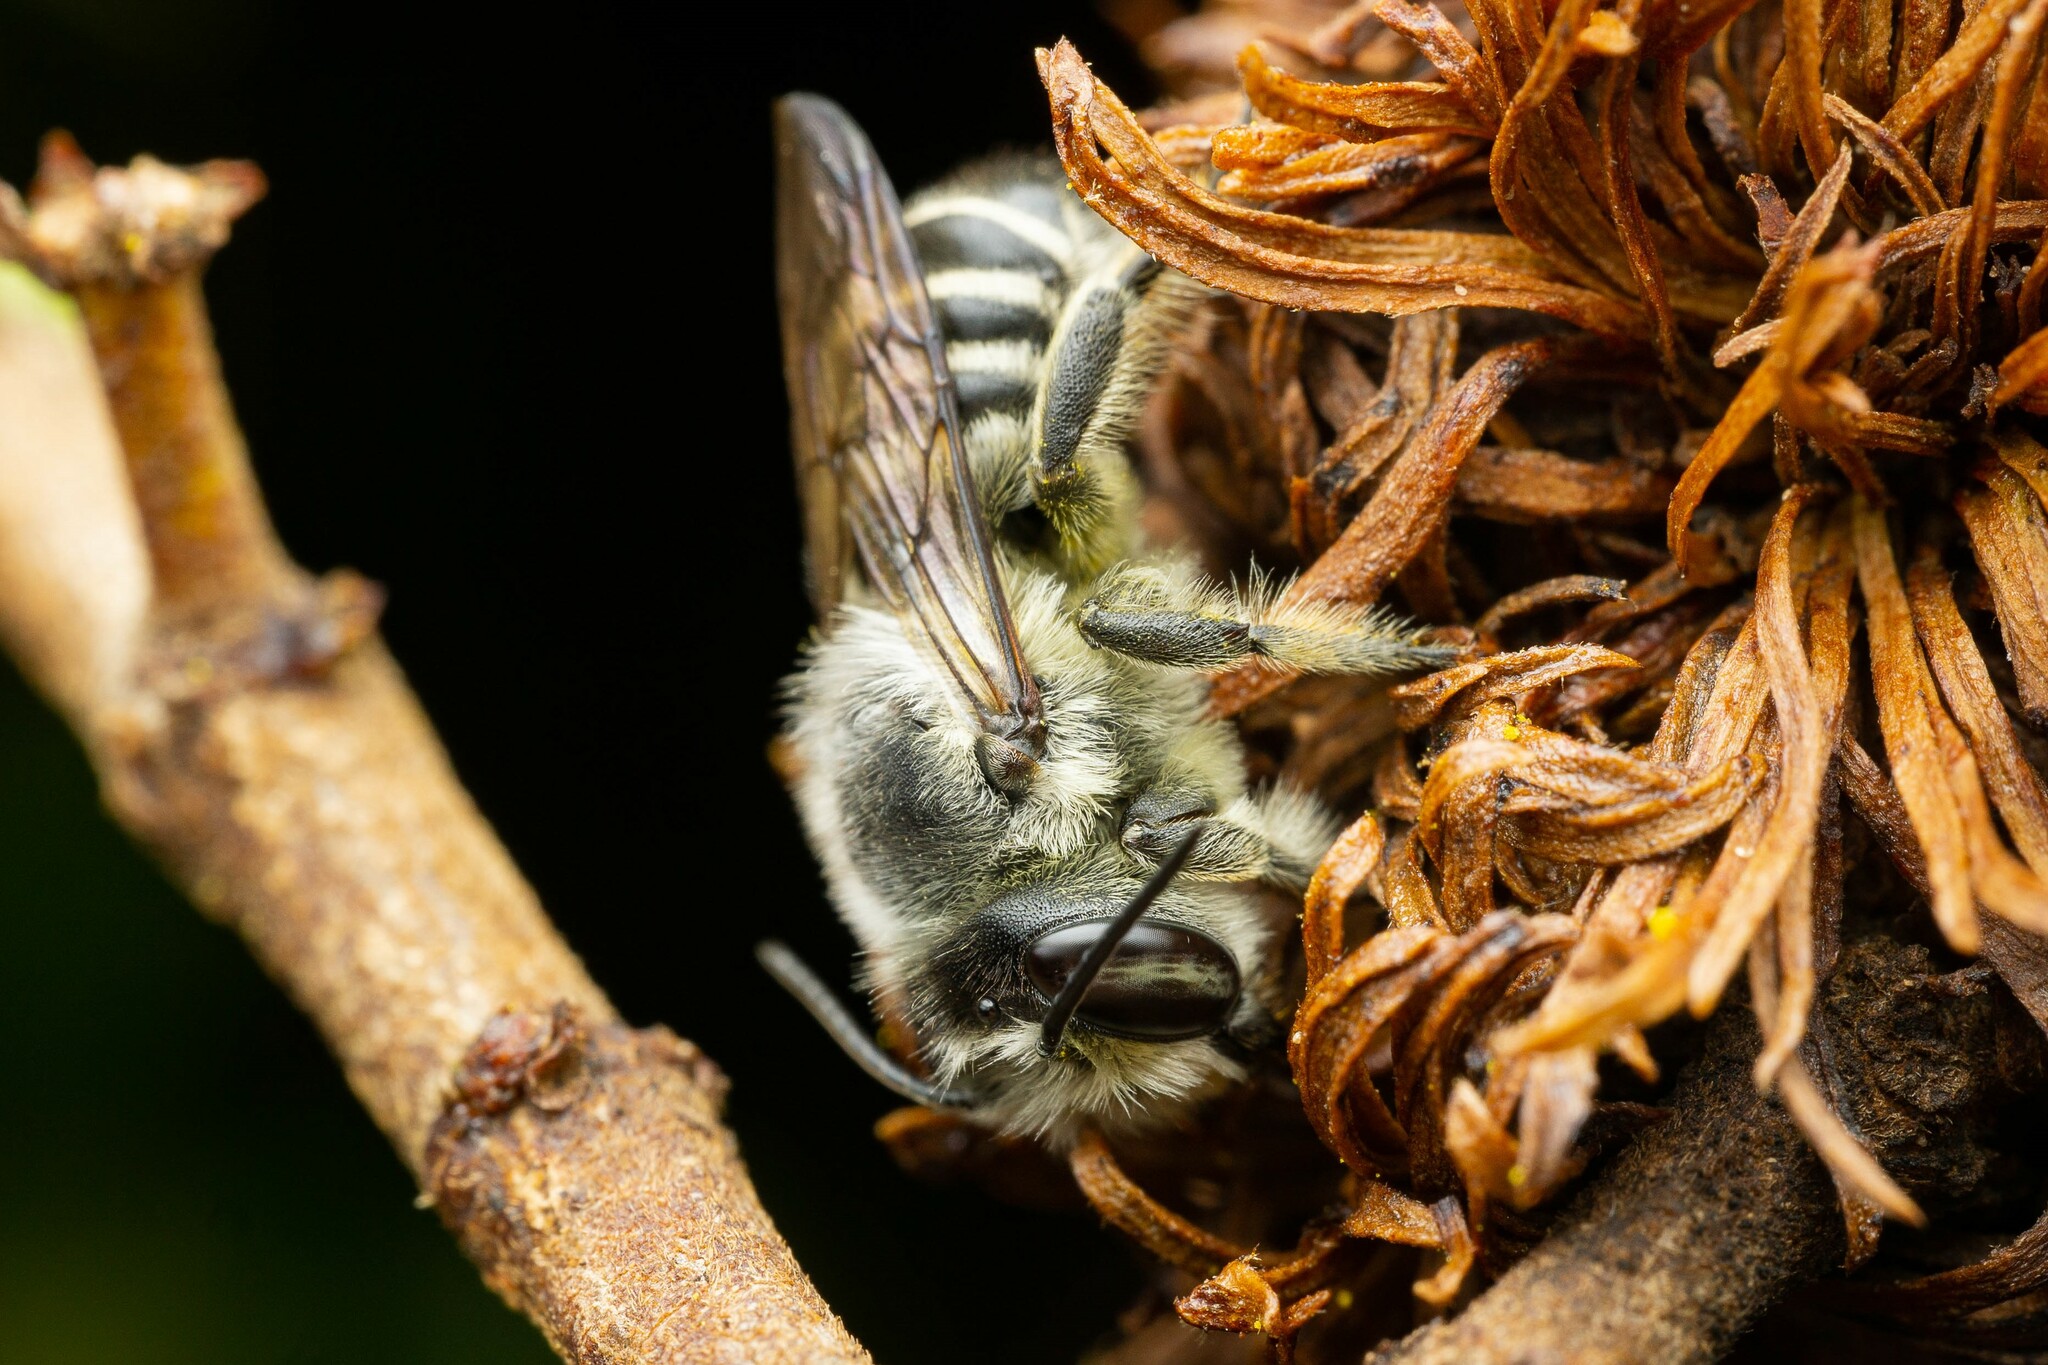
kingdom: Animalia
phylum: Arthropoda
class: Insecta
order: Hymenoptera
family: Megachilidae
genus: Megachile
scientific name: Megachile
